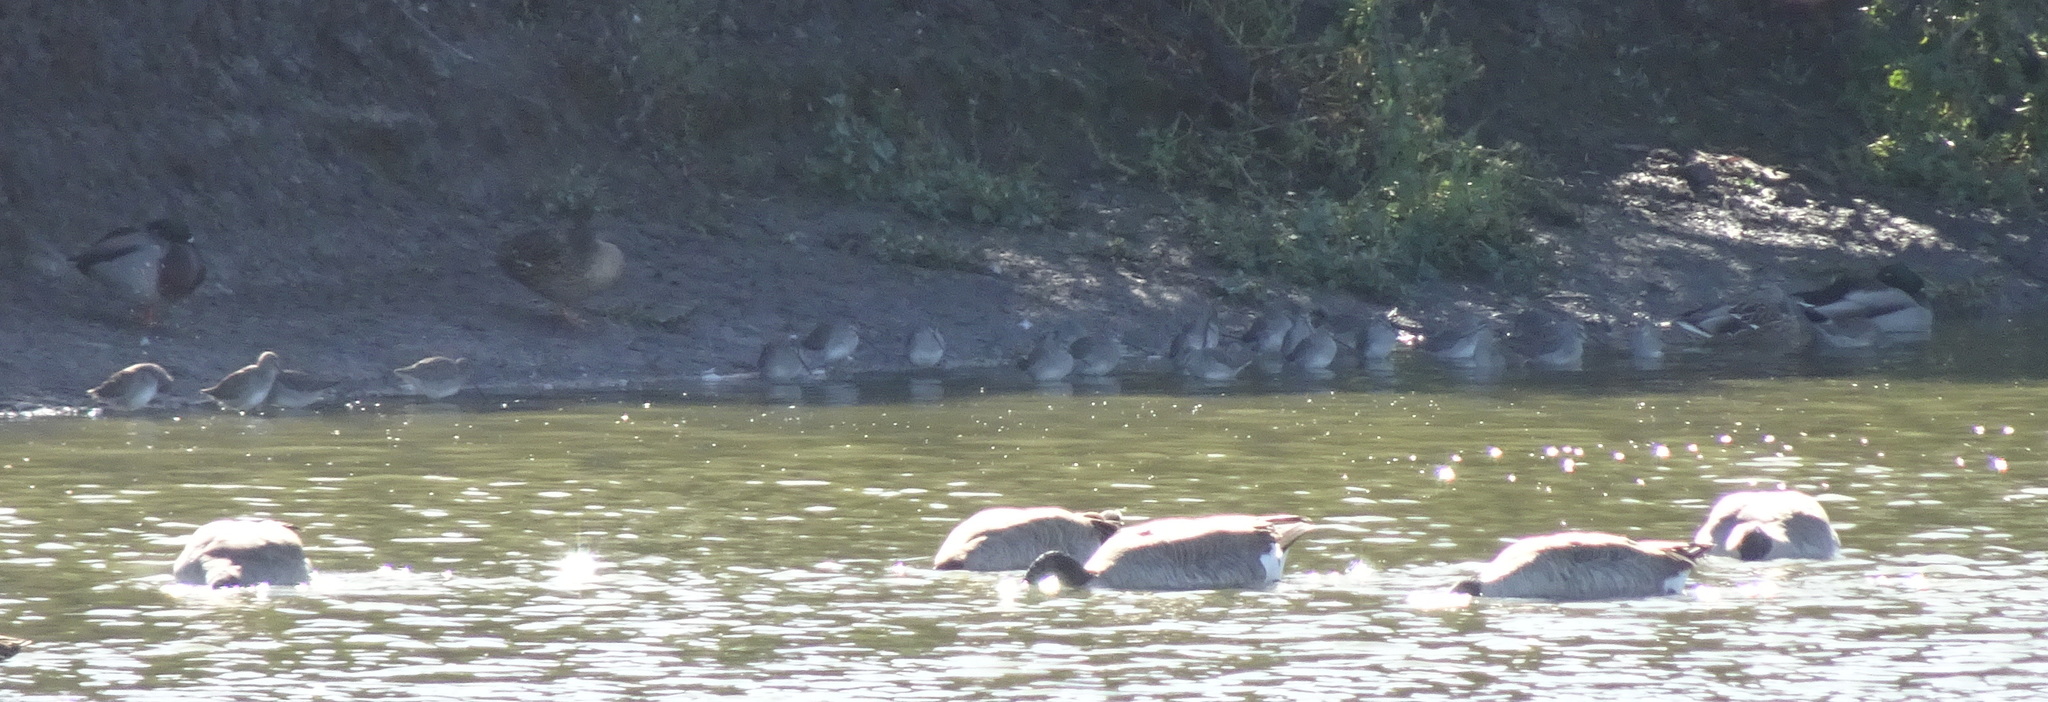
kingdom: Animalia
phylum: Chordata
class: Aves
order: Charadriiformes
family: Scolopacidae
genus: Limnodromus
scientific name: Limnodromus scolopaceus
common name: Long-billed dowitcher
